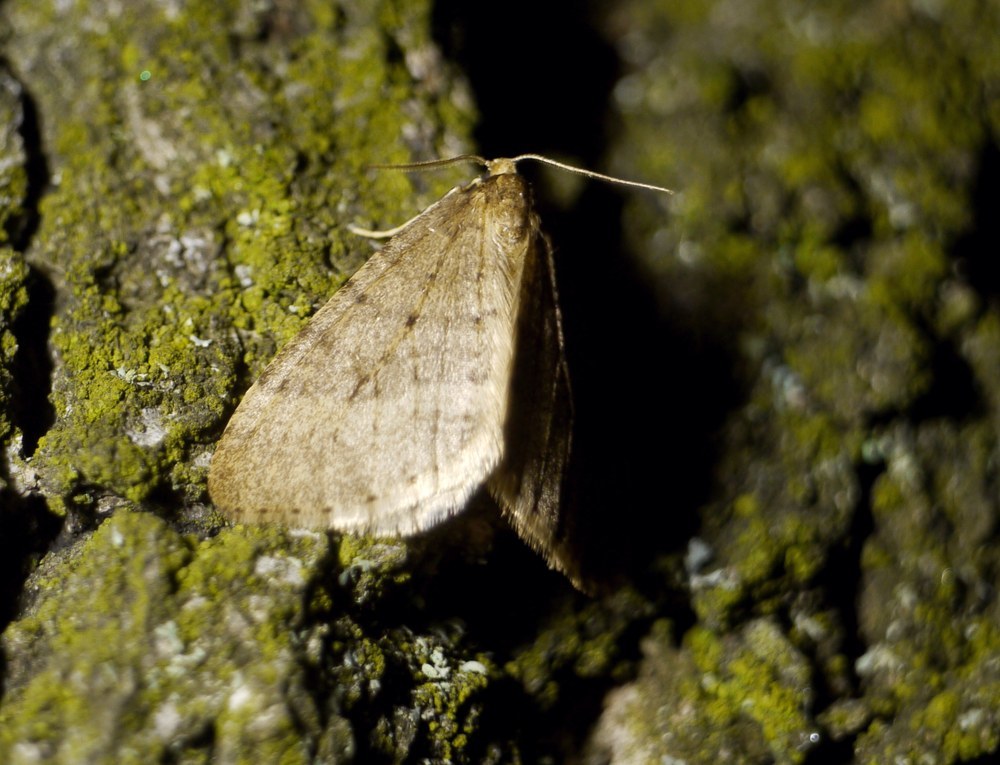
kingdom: Animalia
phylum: Arthropoda
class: Insecta
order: Lepidoptera
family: Geometridae
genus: Operophtera
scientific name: Operophtera brumata
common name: Winter moth
